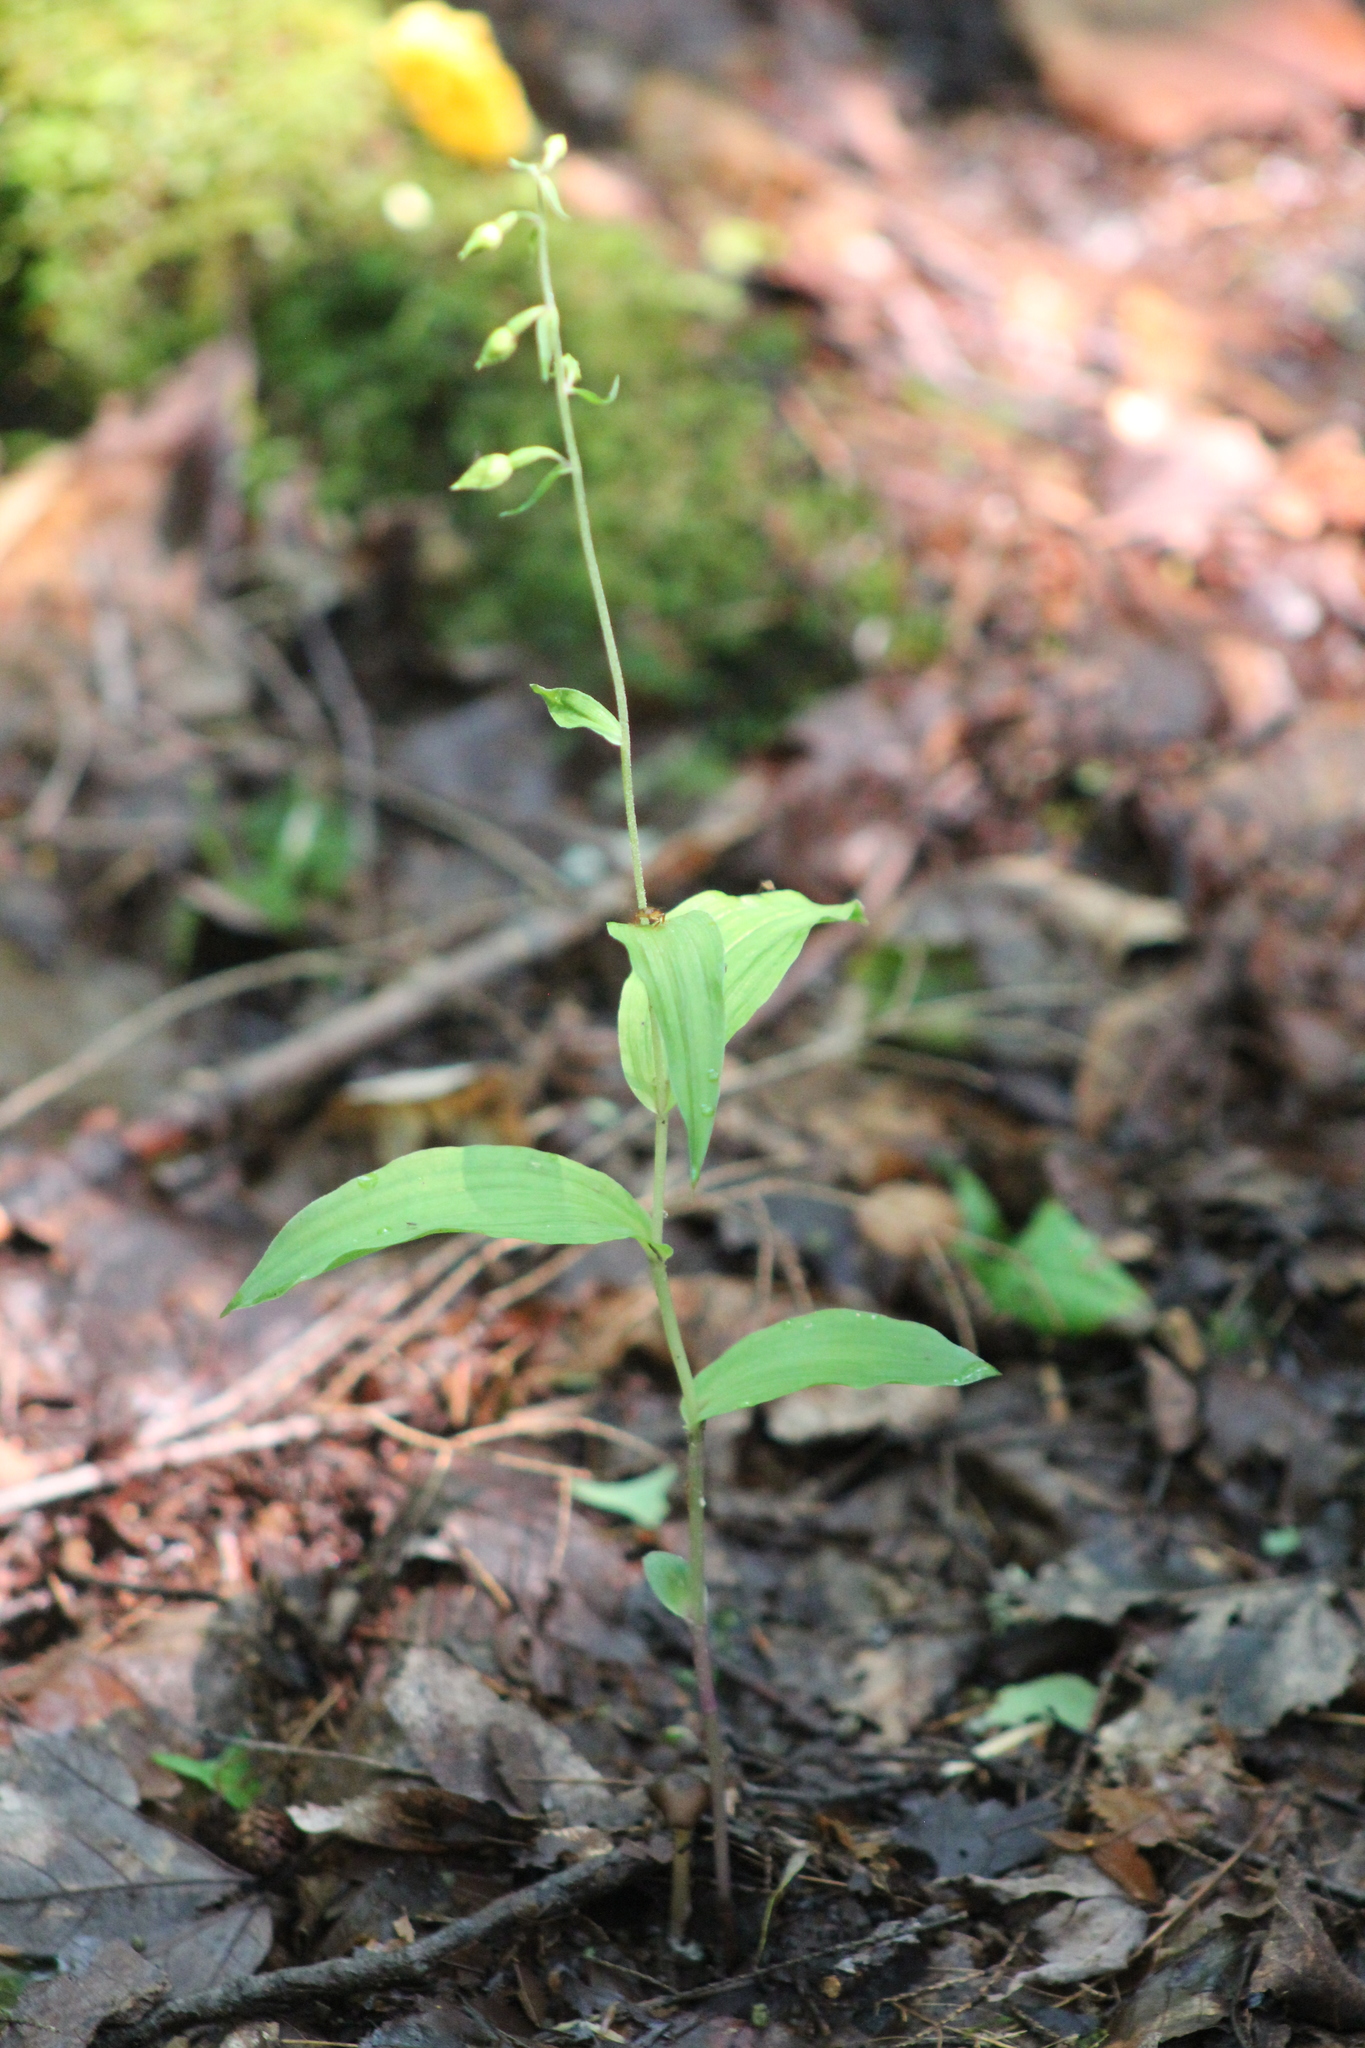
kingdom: Plantae
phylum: Tracheophyta
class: Liliopsida
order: Asparagales
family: Orchidaceae
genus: Epipactis
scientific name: Epipactis helleborine
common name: Broad-leaved helleborine
